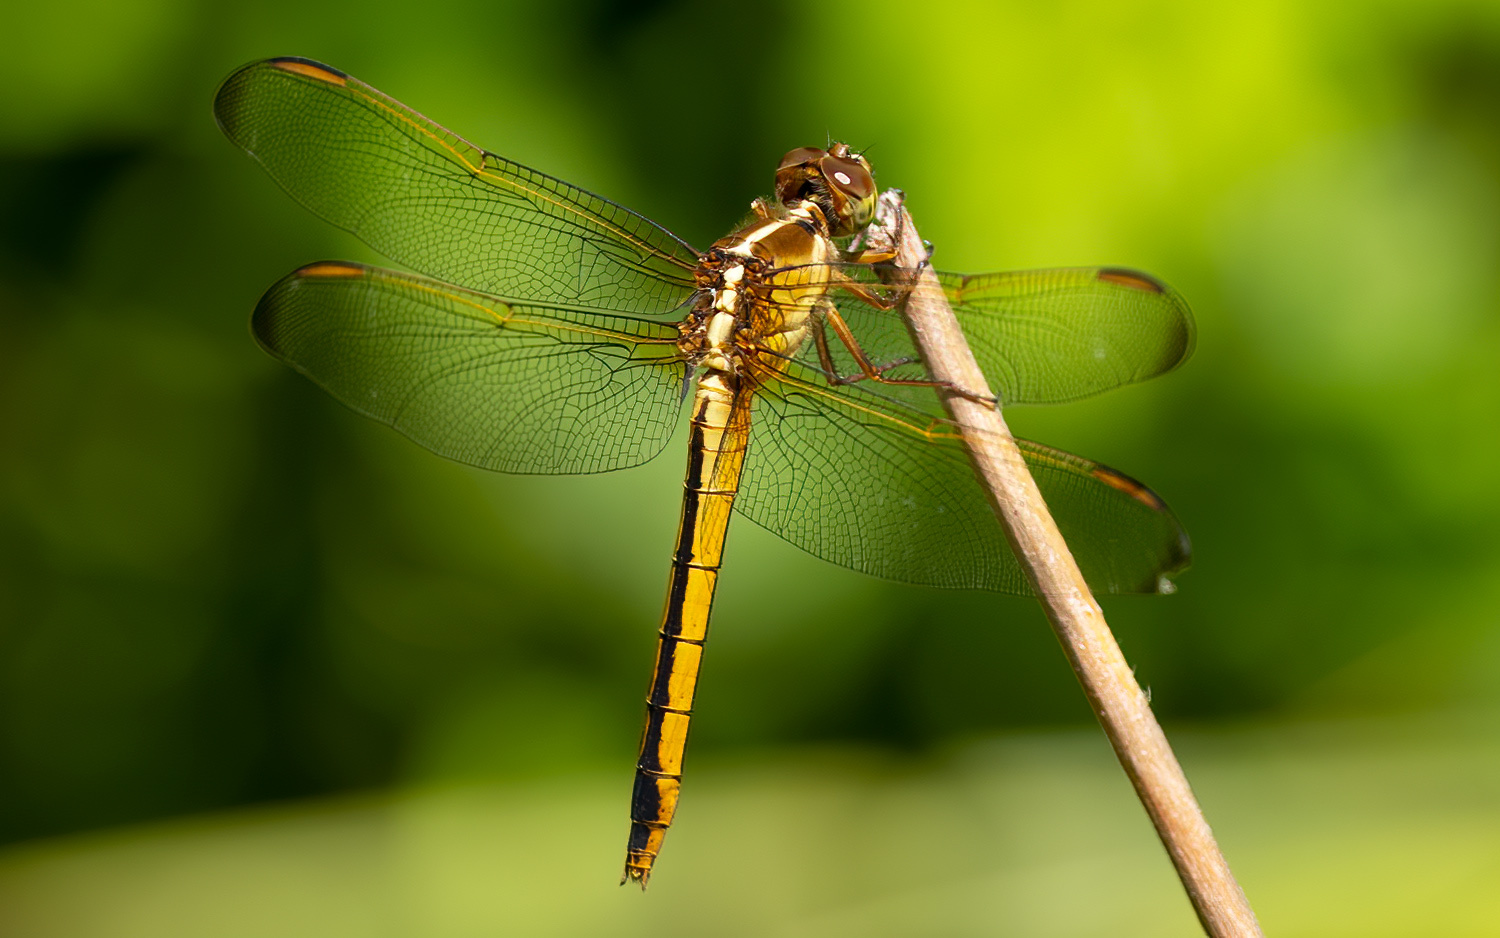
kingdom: Animalia
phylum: Arthropoda
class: Insecta
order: Odonata
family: Libellulidae
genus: Libellula
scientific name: Libellula needhami
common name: Needham's skimmer
